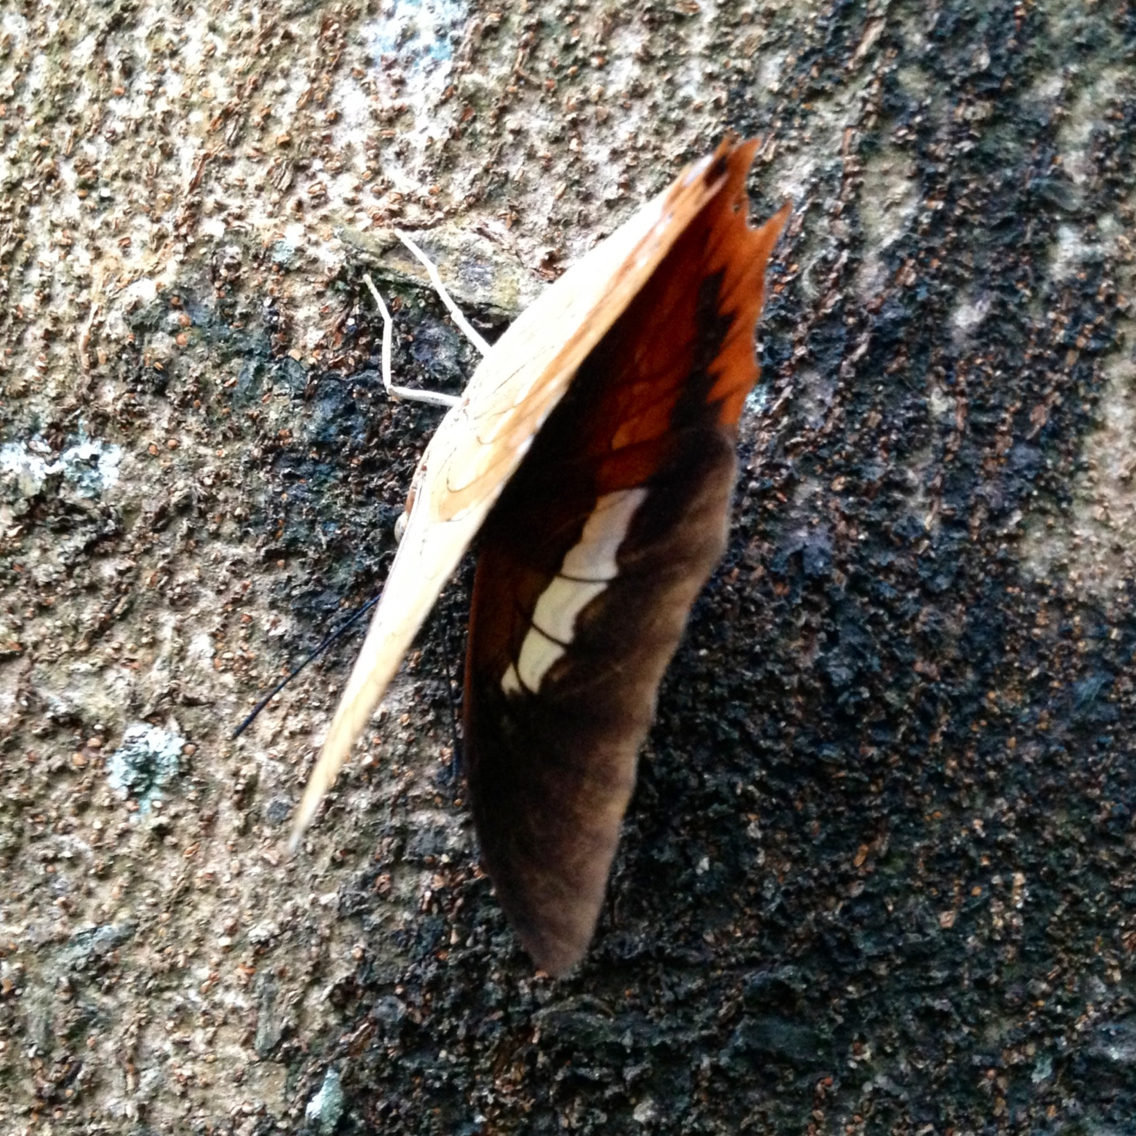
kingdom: Animalia
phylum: Arthropoda
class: Insecta
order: Lepidoptera
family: Nymphalidae
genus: Charaxes
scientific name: Charaxes bernardus
